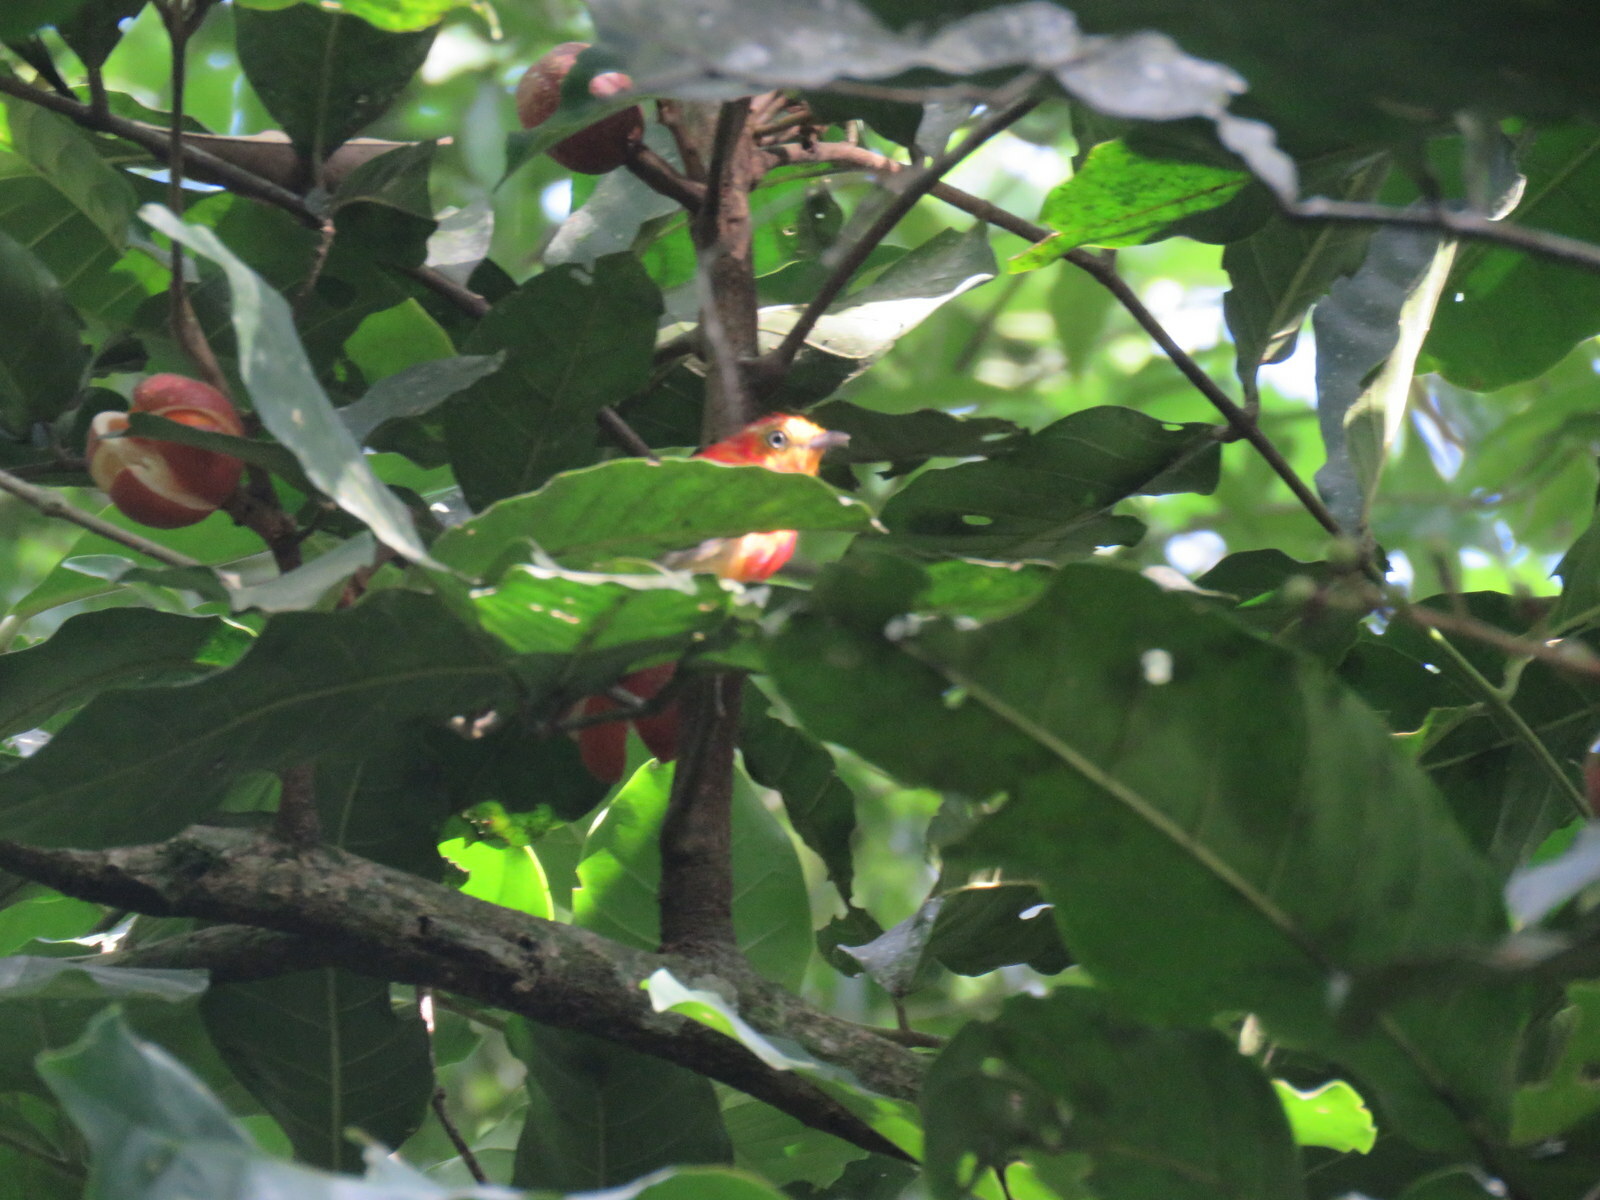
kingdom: Animalia
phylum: Chordata
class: Aves
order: Passeriformes
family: Pipridae
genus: Pipra
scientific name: Pipra fasciicauda
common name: Band-tailed manakin
